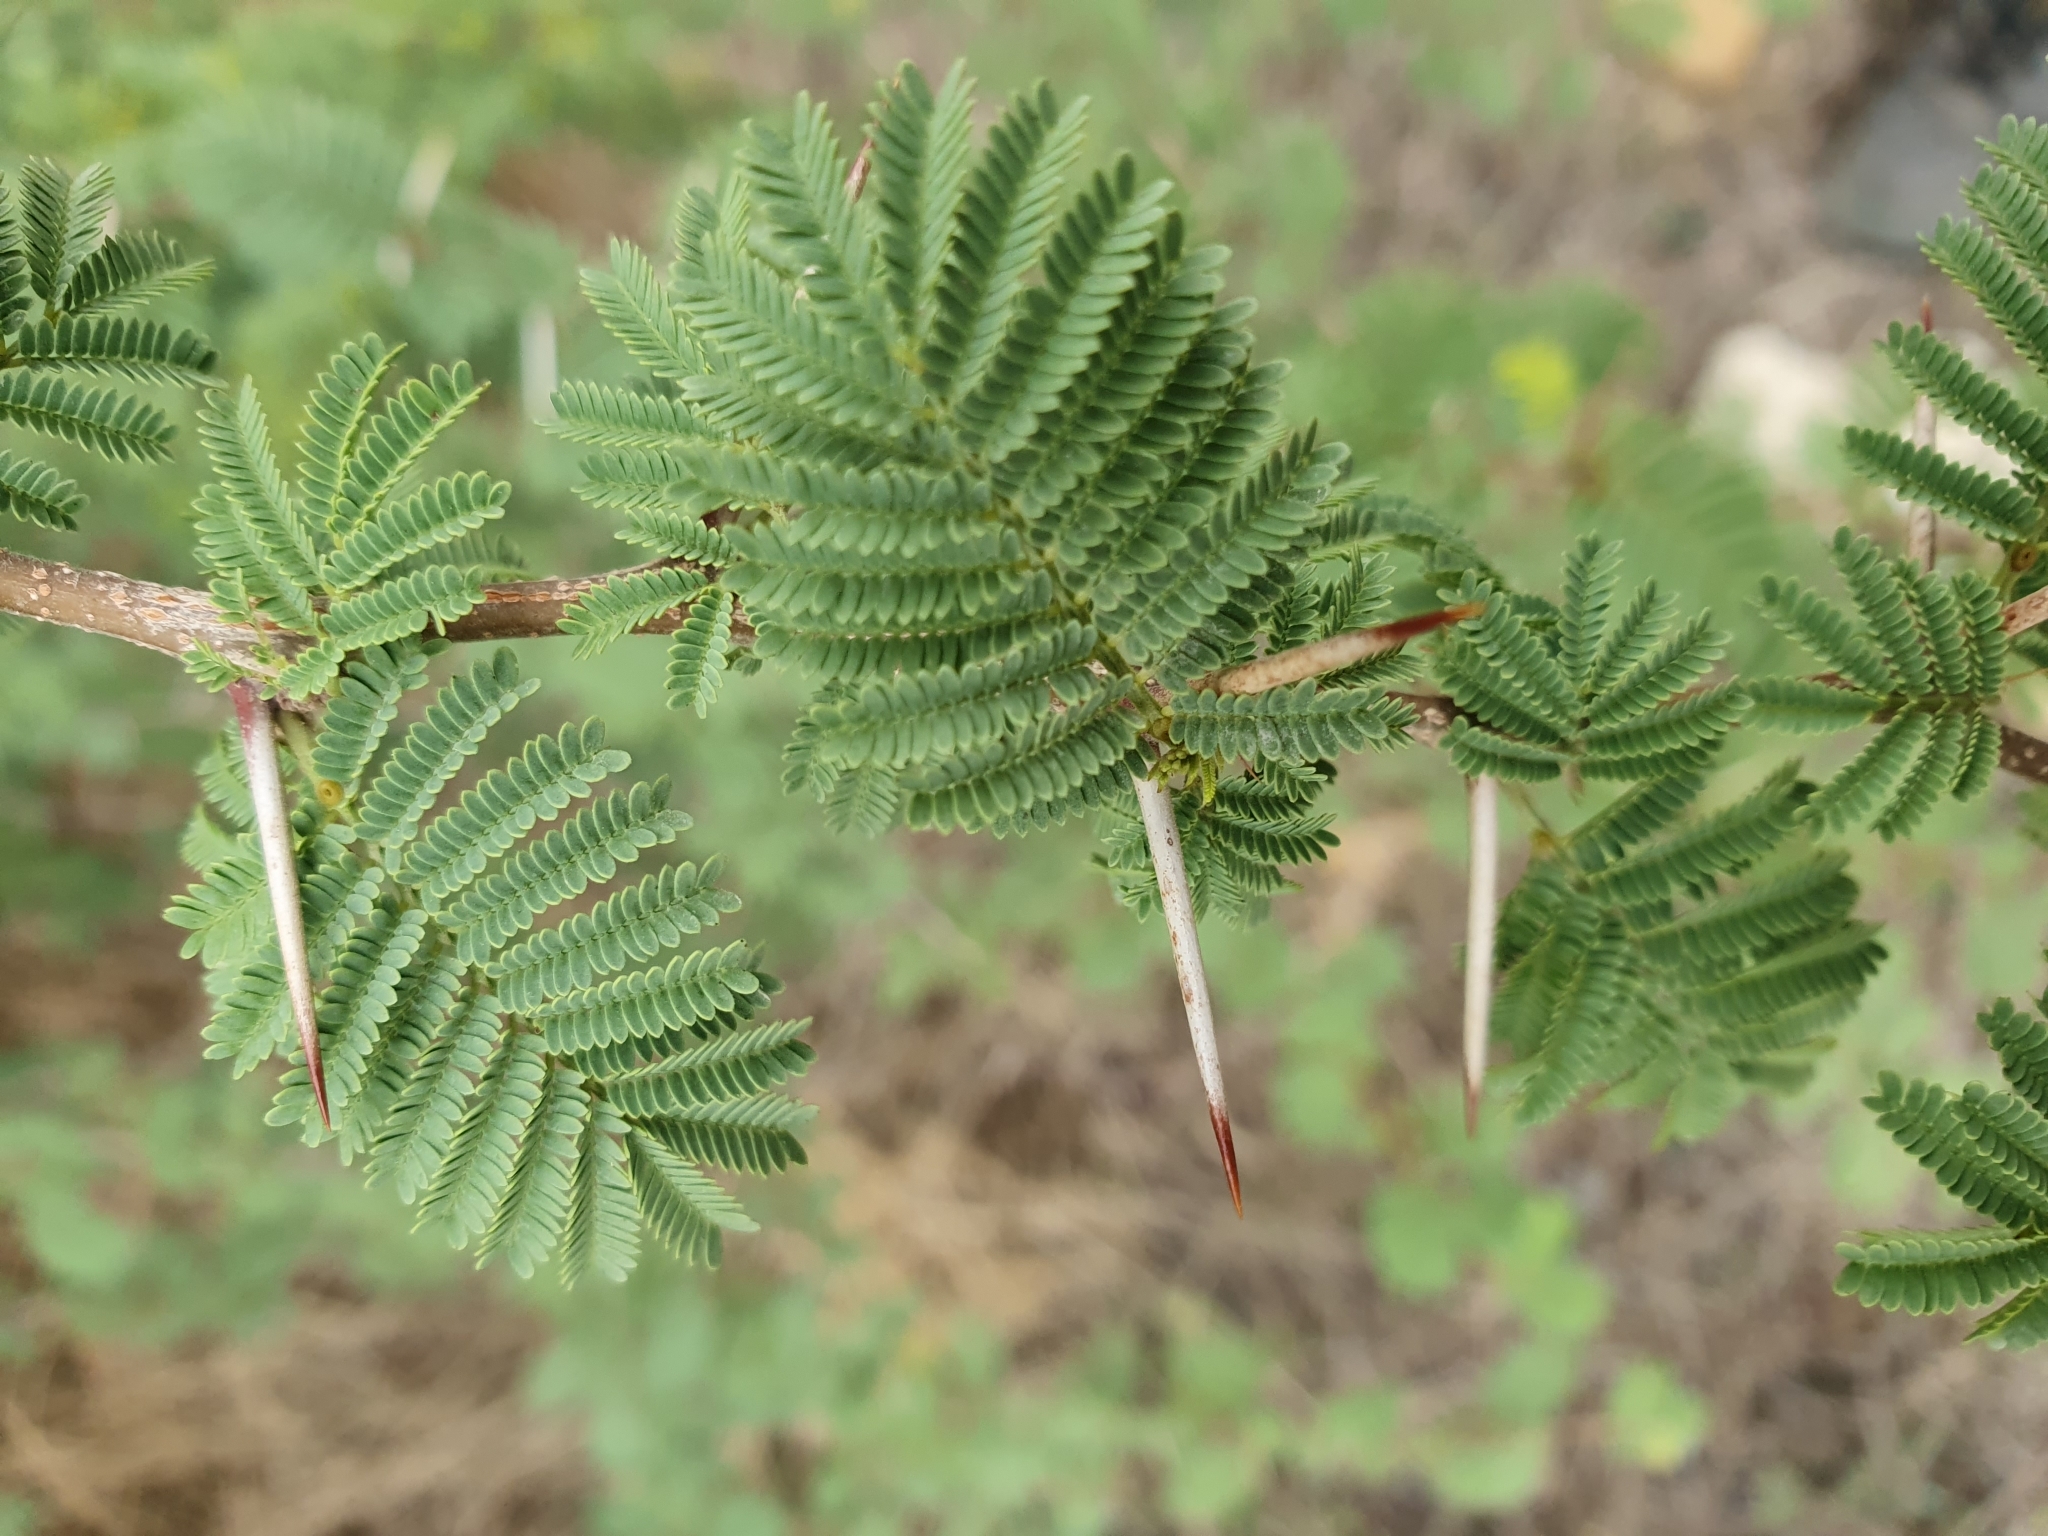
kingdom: Plantae
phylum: Tracheophyta
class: Magnoliopsida
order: Fabales
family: Fabaceae
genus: Vachellia
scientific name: Vachellia caven
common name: Roman cassie
